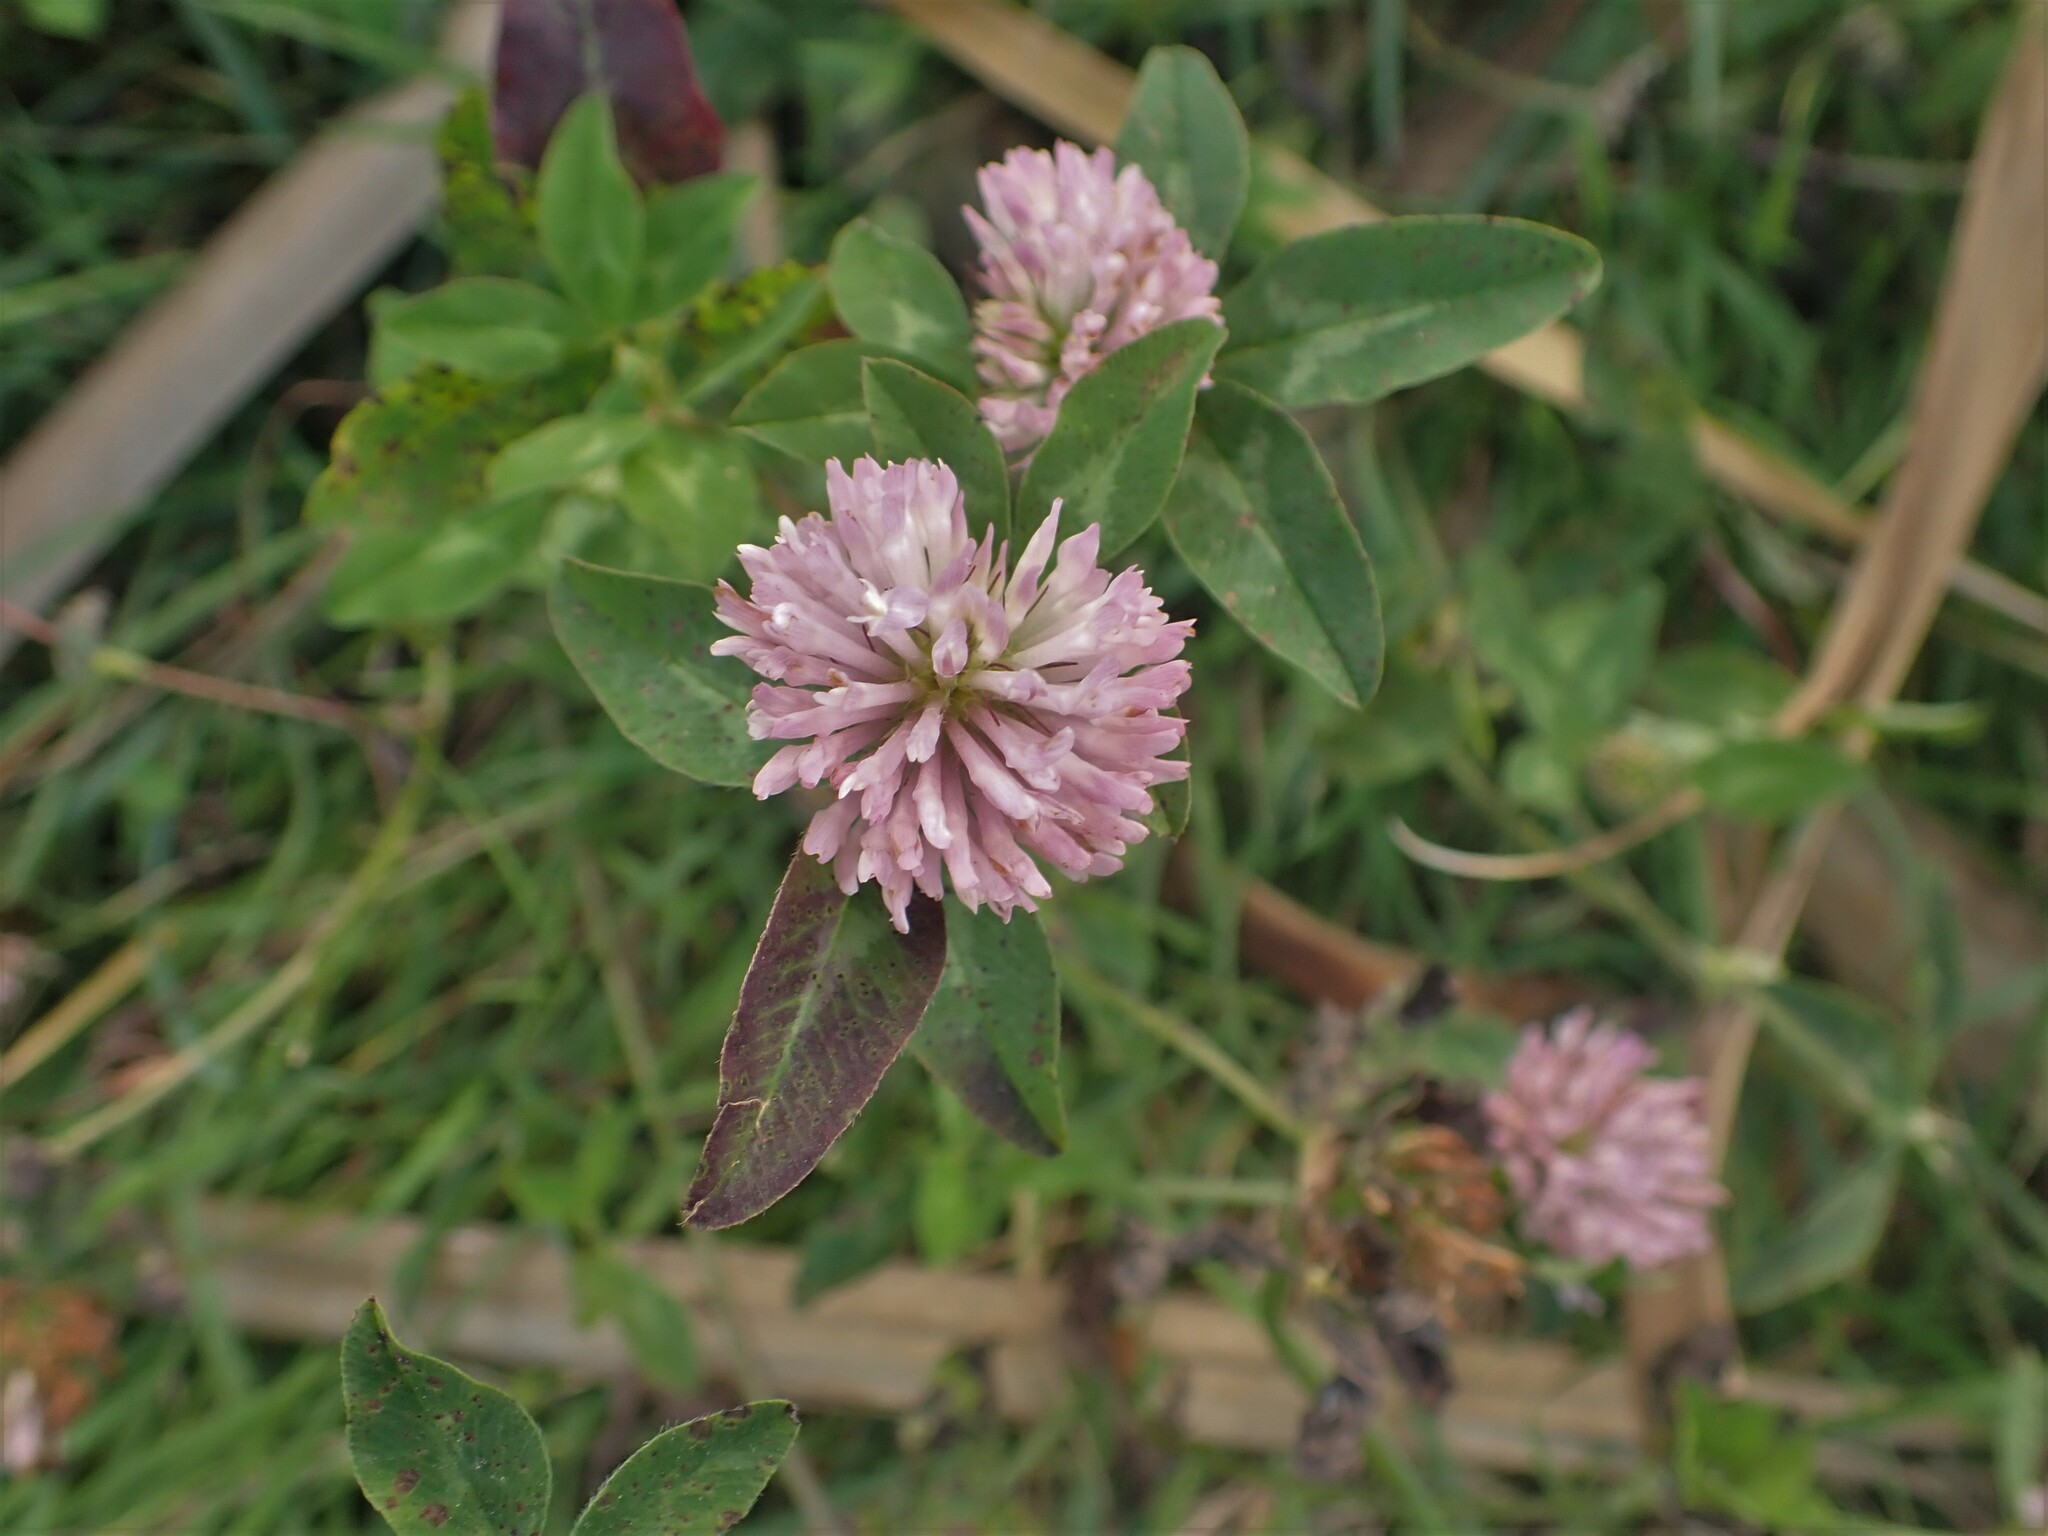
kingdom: Plantae
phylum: Tracheophyta
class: Magnoliopsida
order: Fabales
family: Fabaceae
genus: Trifolium
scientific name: Trifolium pratense
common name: Red clover
